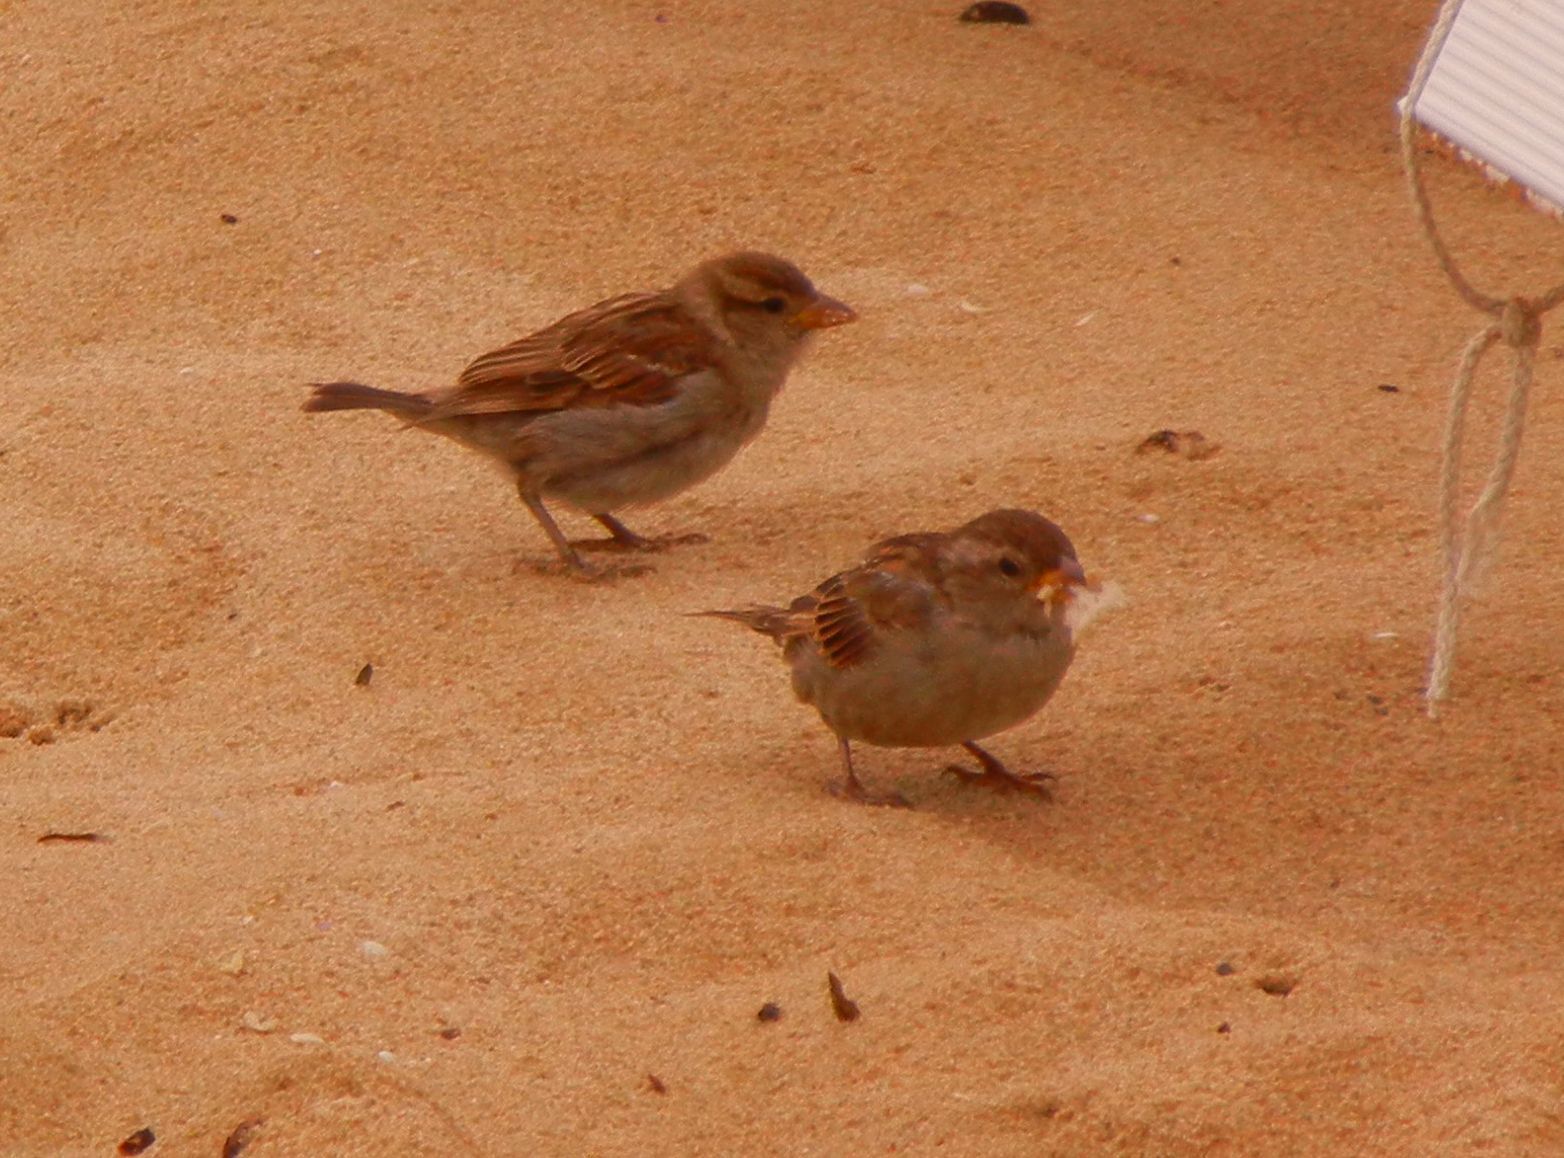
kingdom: Animalia
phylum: Chordata
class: Aves
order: Passeriformes
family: Passeridae
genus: Passer
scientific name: Passer domesticus
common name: House sparrow
